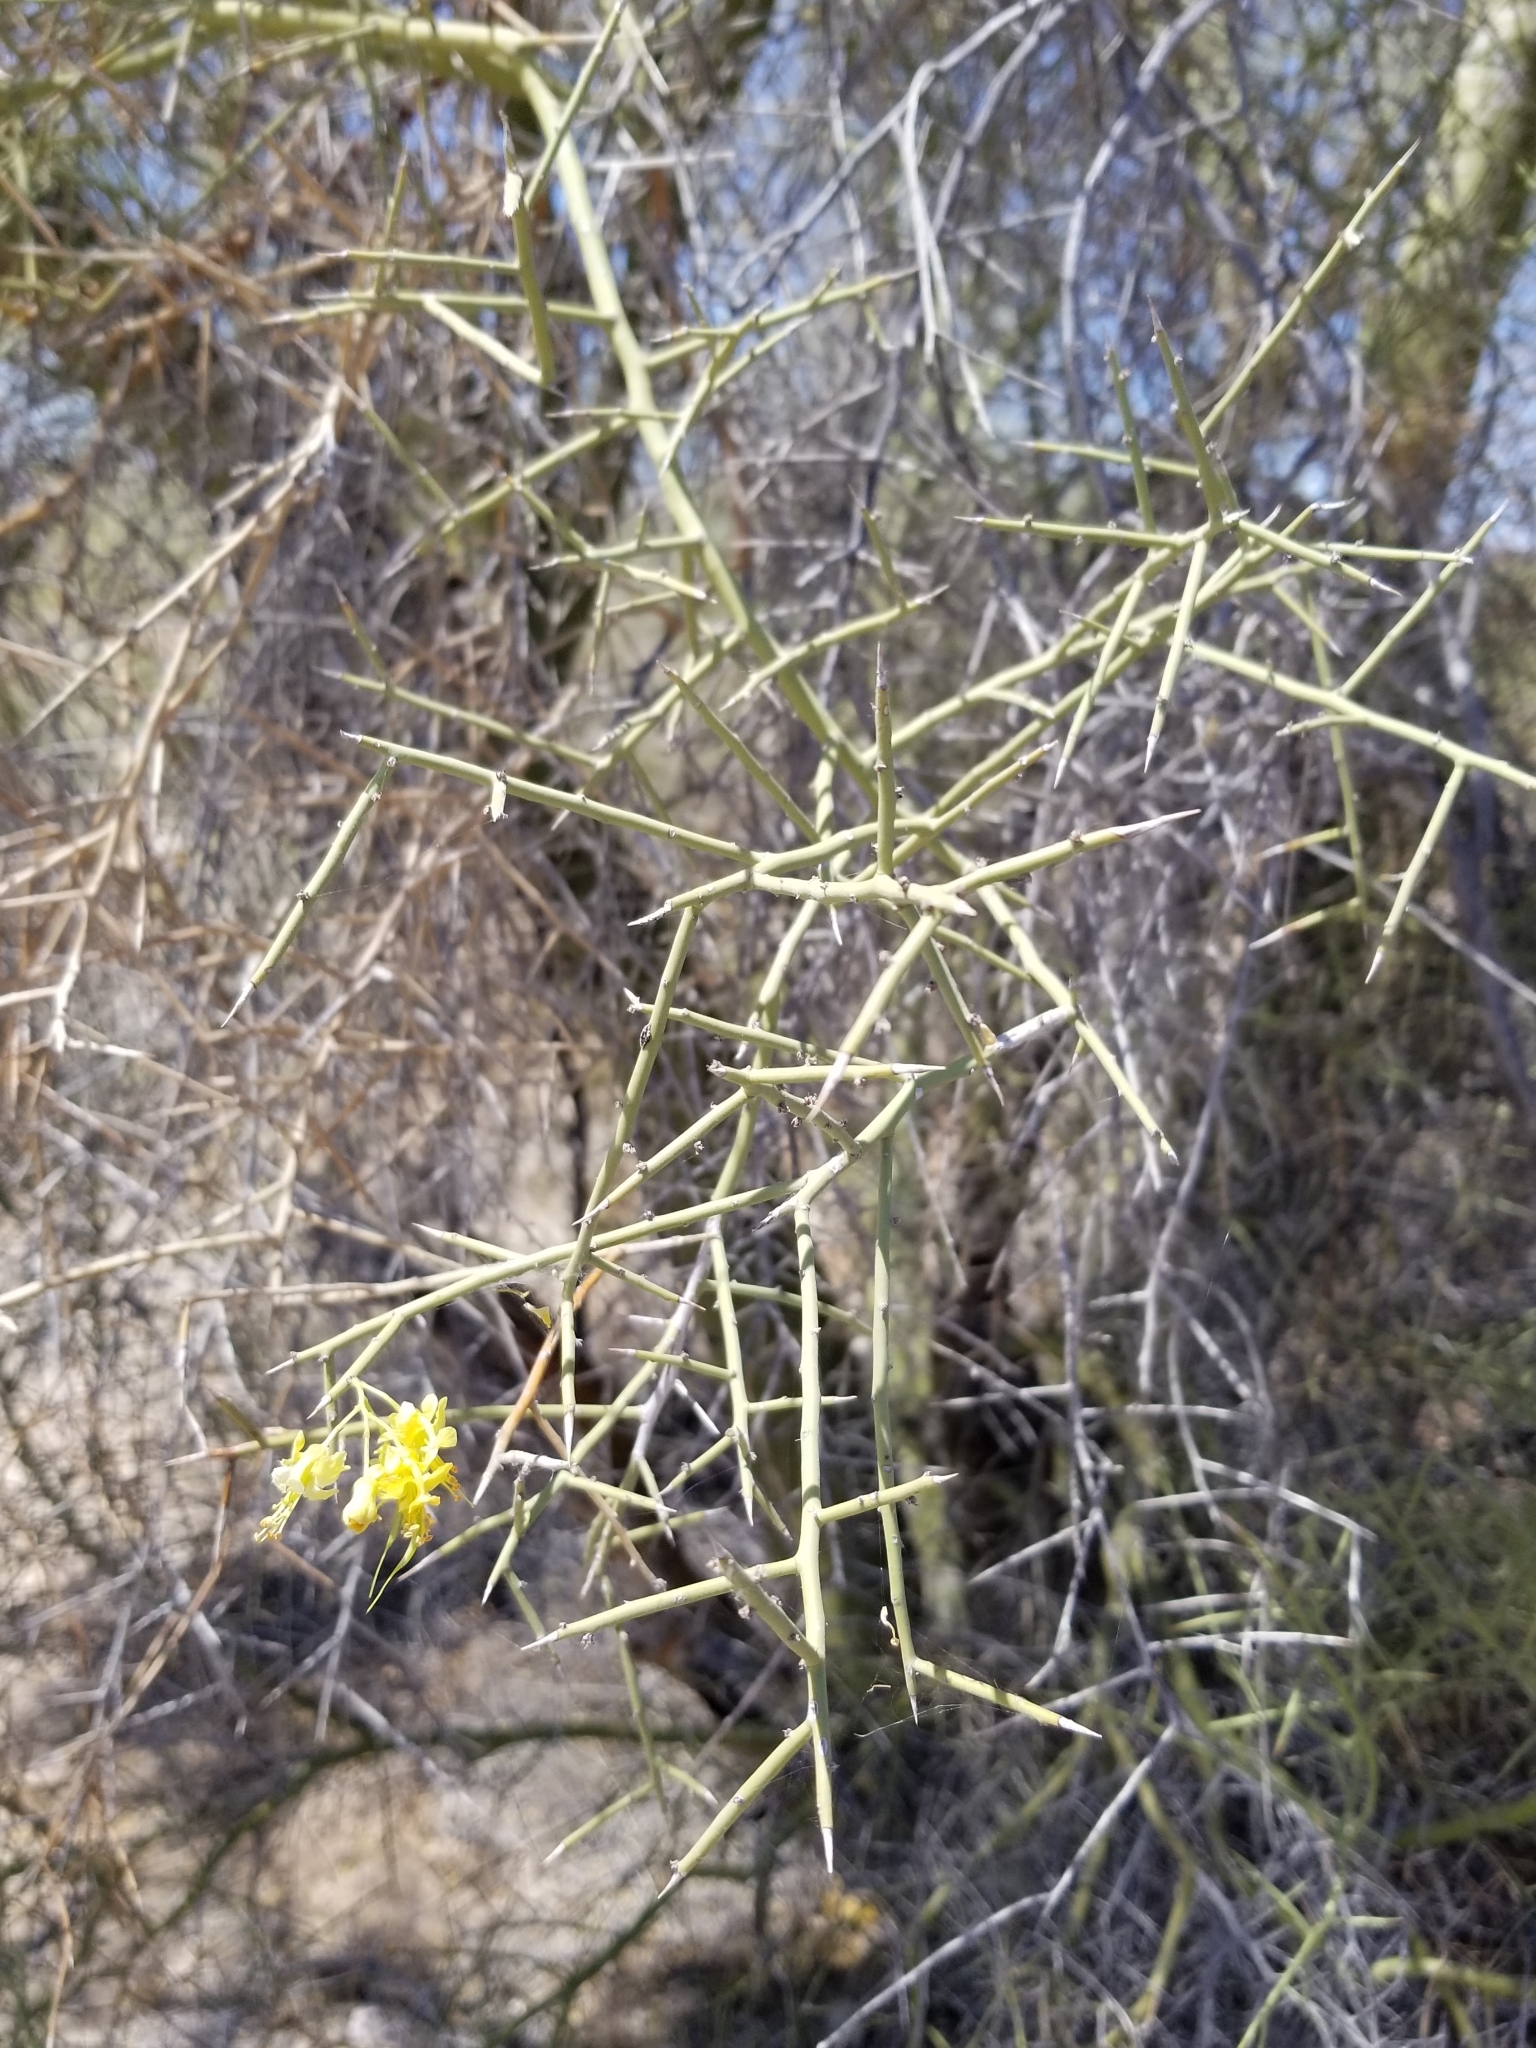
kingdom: Plantae
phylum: Tracheophyta
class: Magnoliopsida
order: Fabales
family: Fabaceae
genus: Parkinsonia
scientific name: Parkinsonia microphylla
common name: Yellow paloverde
